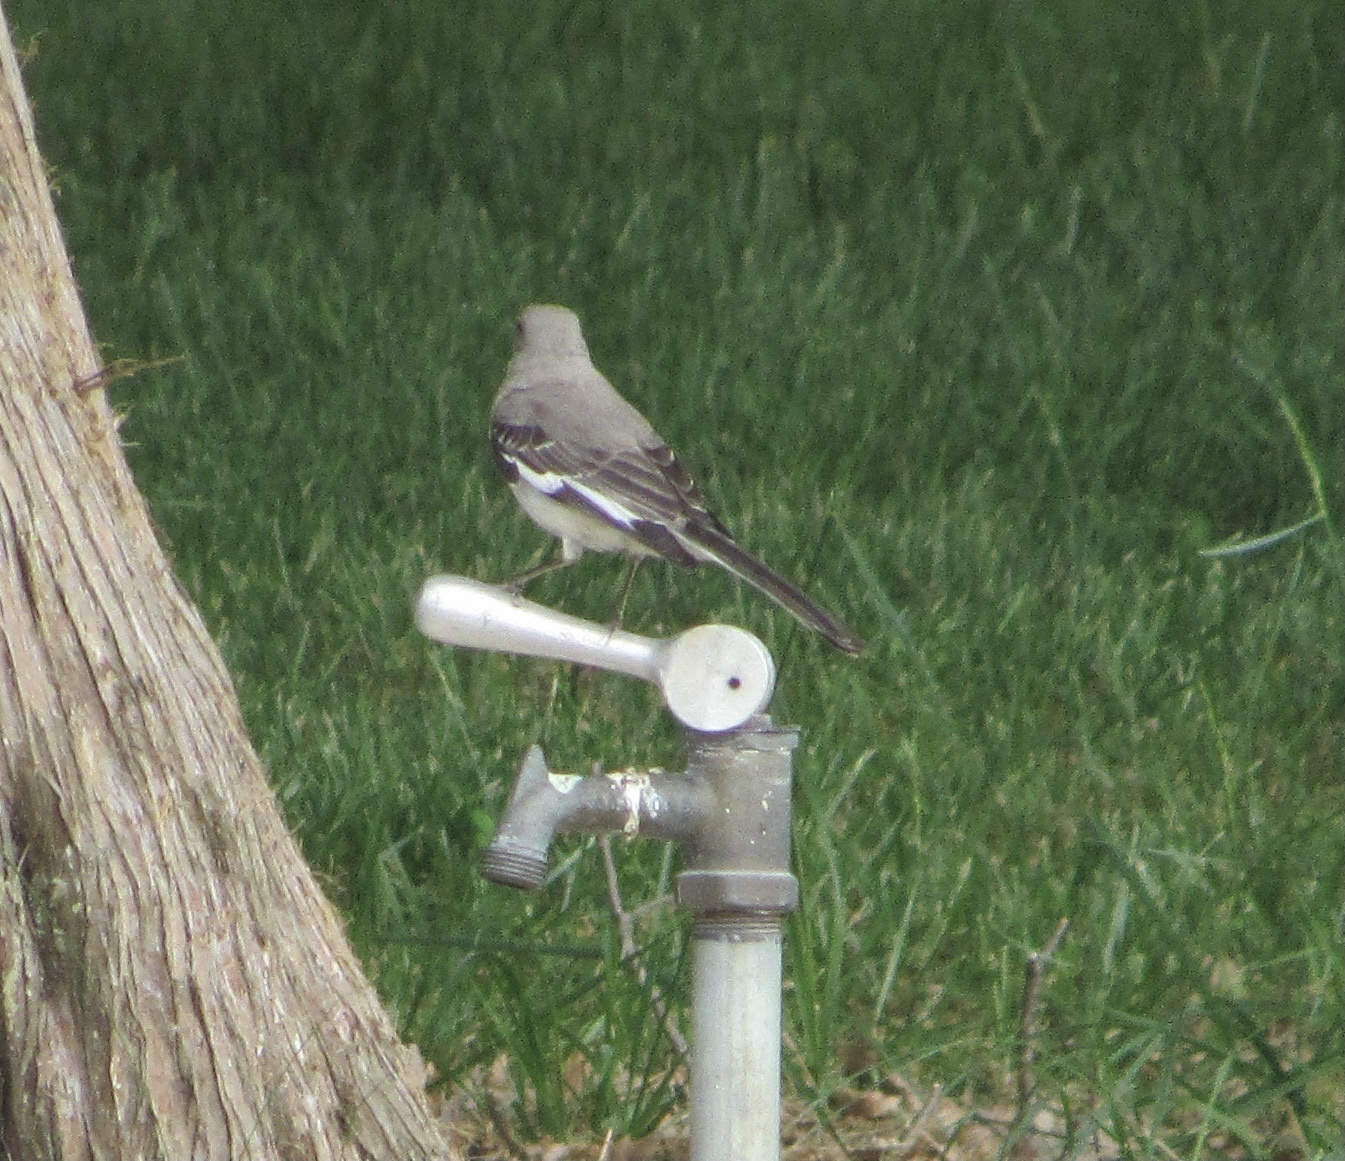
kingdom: Animalia
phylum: Chordata
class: Aves
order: Passeriformes
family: Mimidae
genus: Mimus
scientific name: Mimus polyglottos
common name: Northern mockingbird
